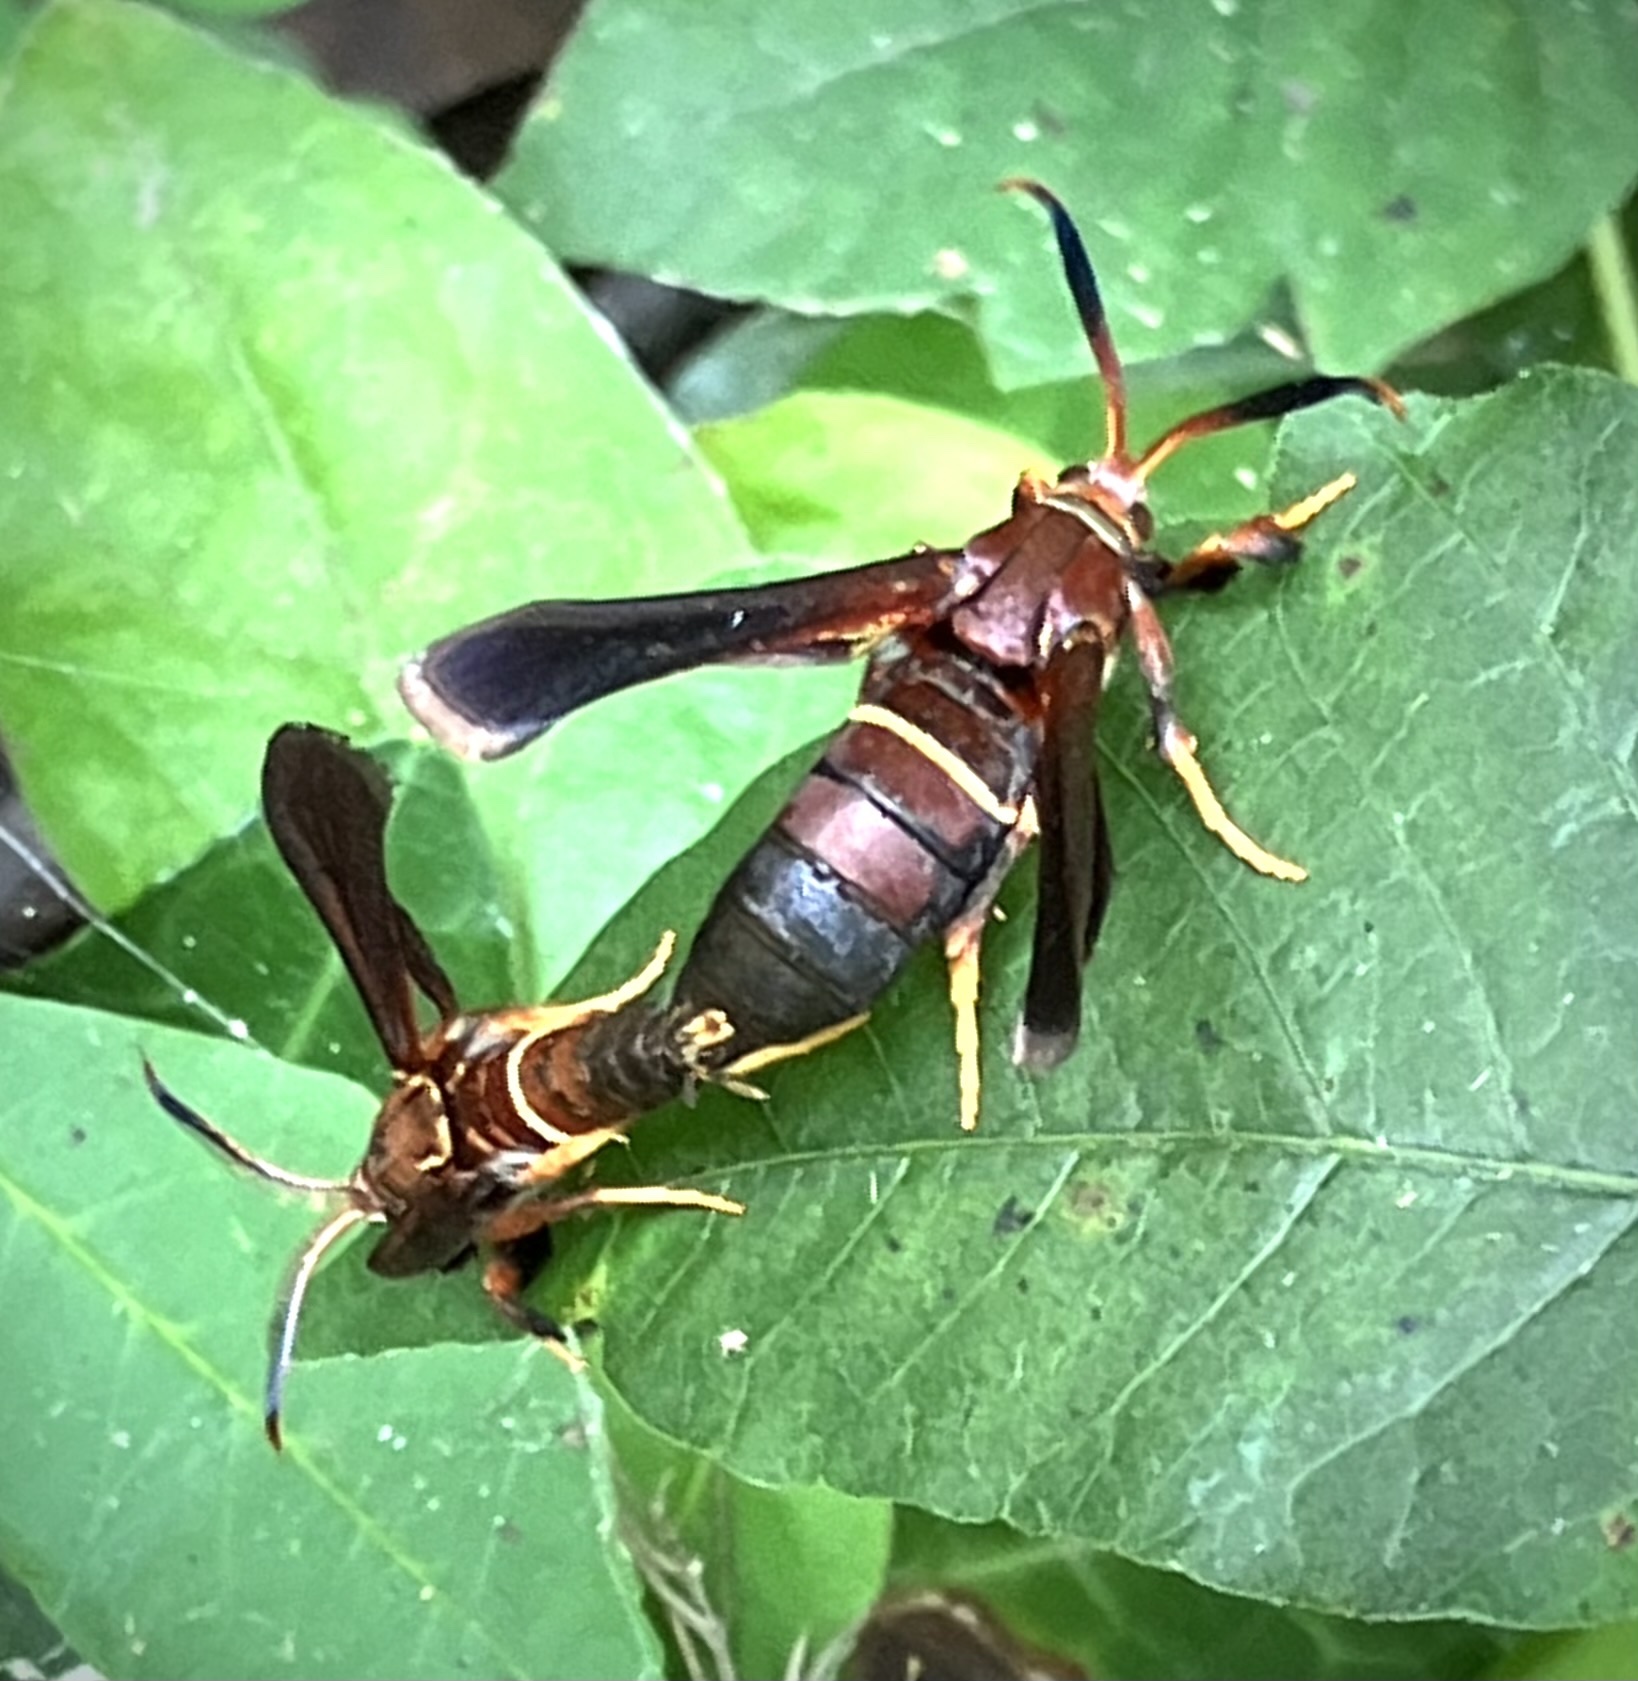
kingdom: Animalia
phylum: Arthropoda
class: Insecta
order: Lepidoptera
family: Sesiidae
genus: Vitacea
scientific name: Vitacea scepsiformis
